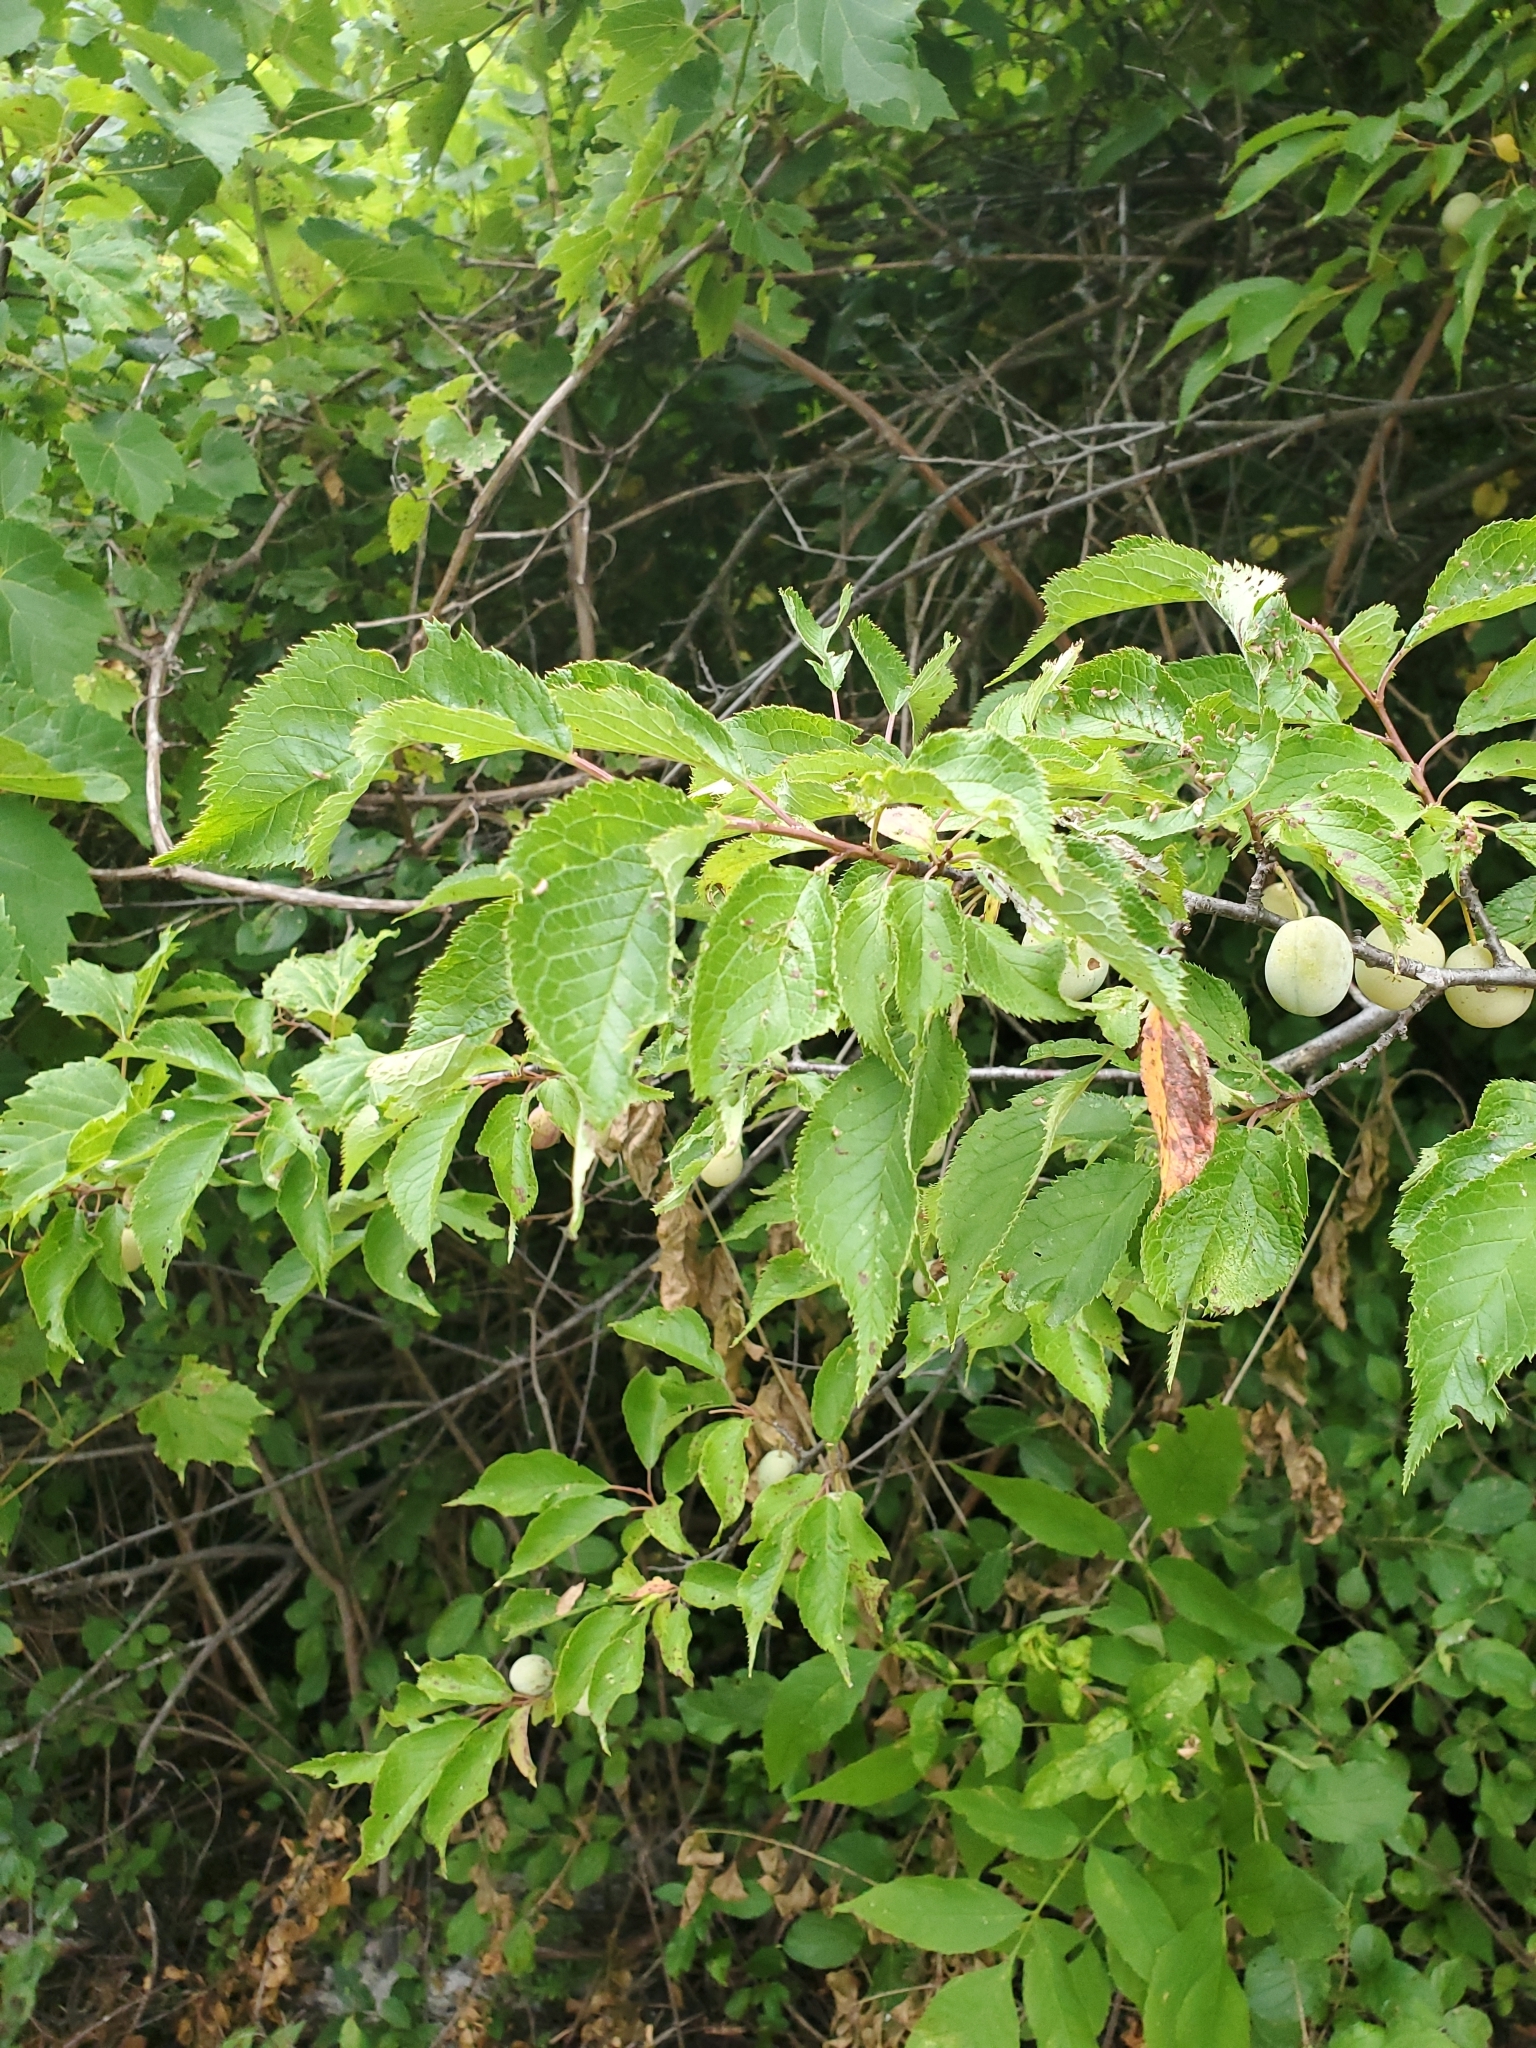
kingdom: Plantae
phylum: Tracheophyta
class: Magnoliopsida
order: Rosales
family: Rosaceae
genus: Prunus
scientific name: Prunus americana
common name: American plum
